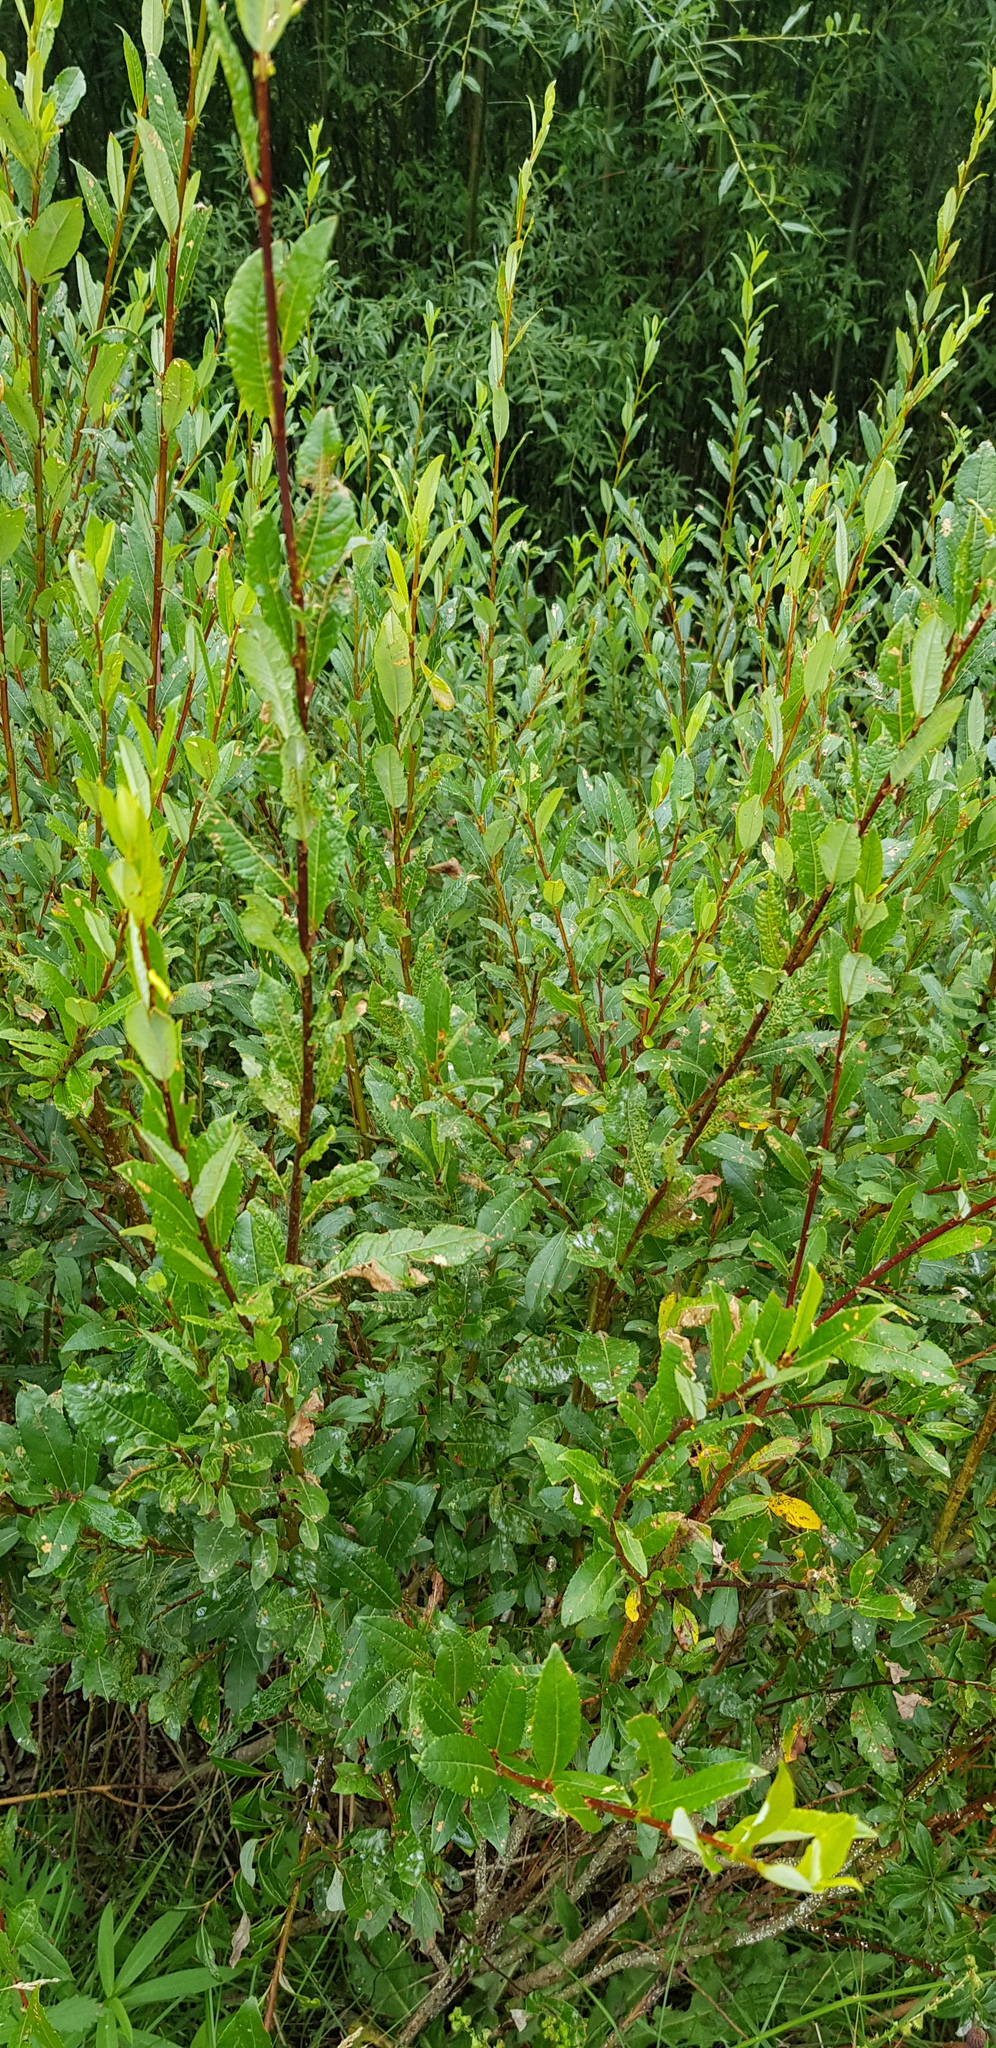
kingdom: Plantae
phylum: Tracheophyta
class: Magnoliopsida
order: Malpighiales
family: Salicaceae
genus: Salix
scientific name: Salix rhamnifolia
